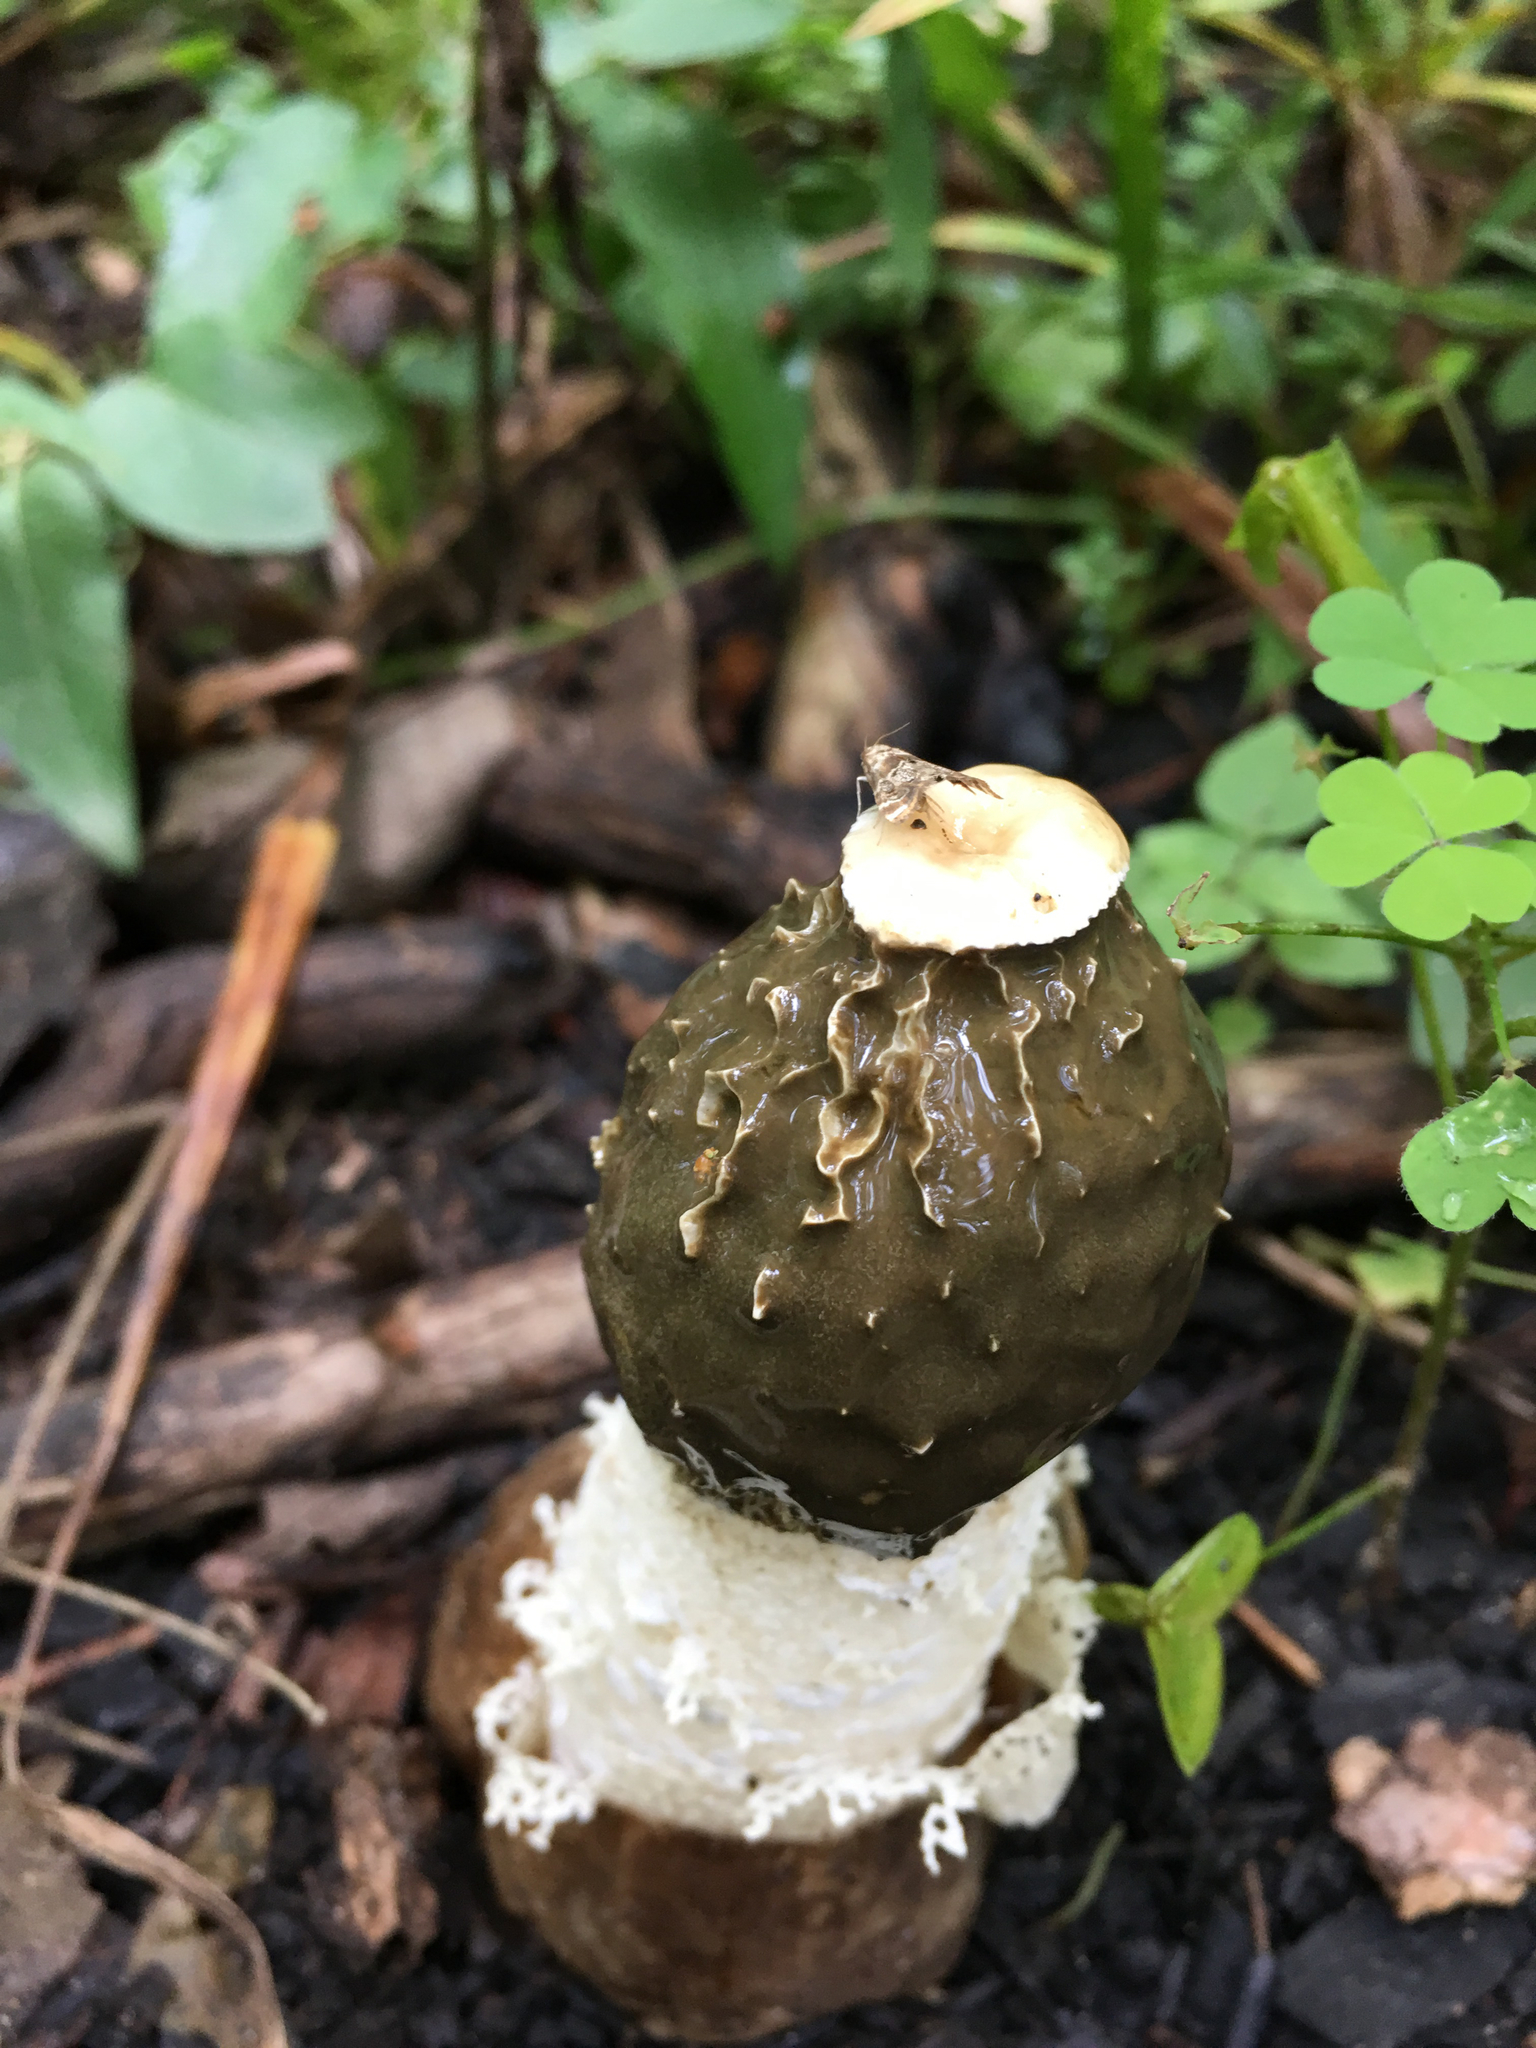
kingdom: Fungi
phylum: Basidiomycota
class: Agaricomycetes
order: Phallales
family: Phallaceae
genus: Phallus
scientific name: Phallus indusiatus
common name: Bridal veil stinkhorn
